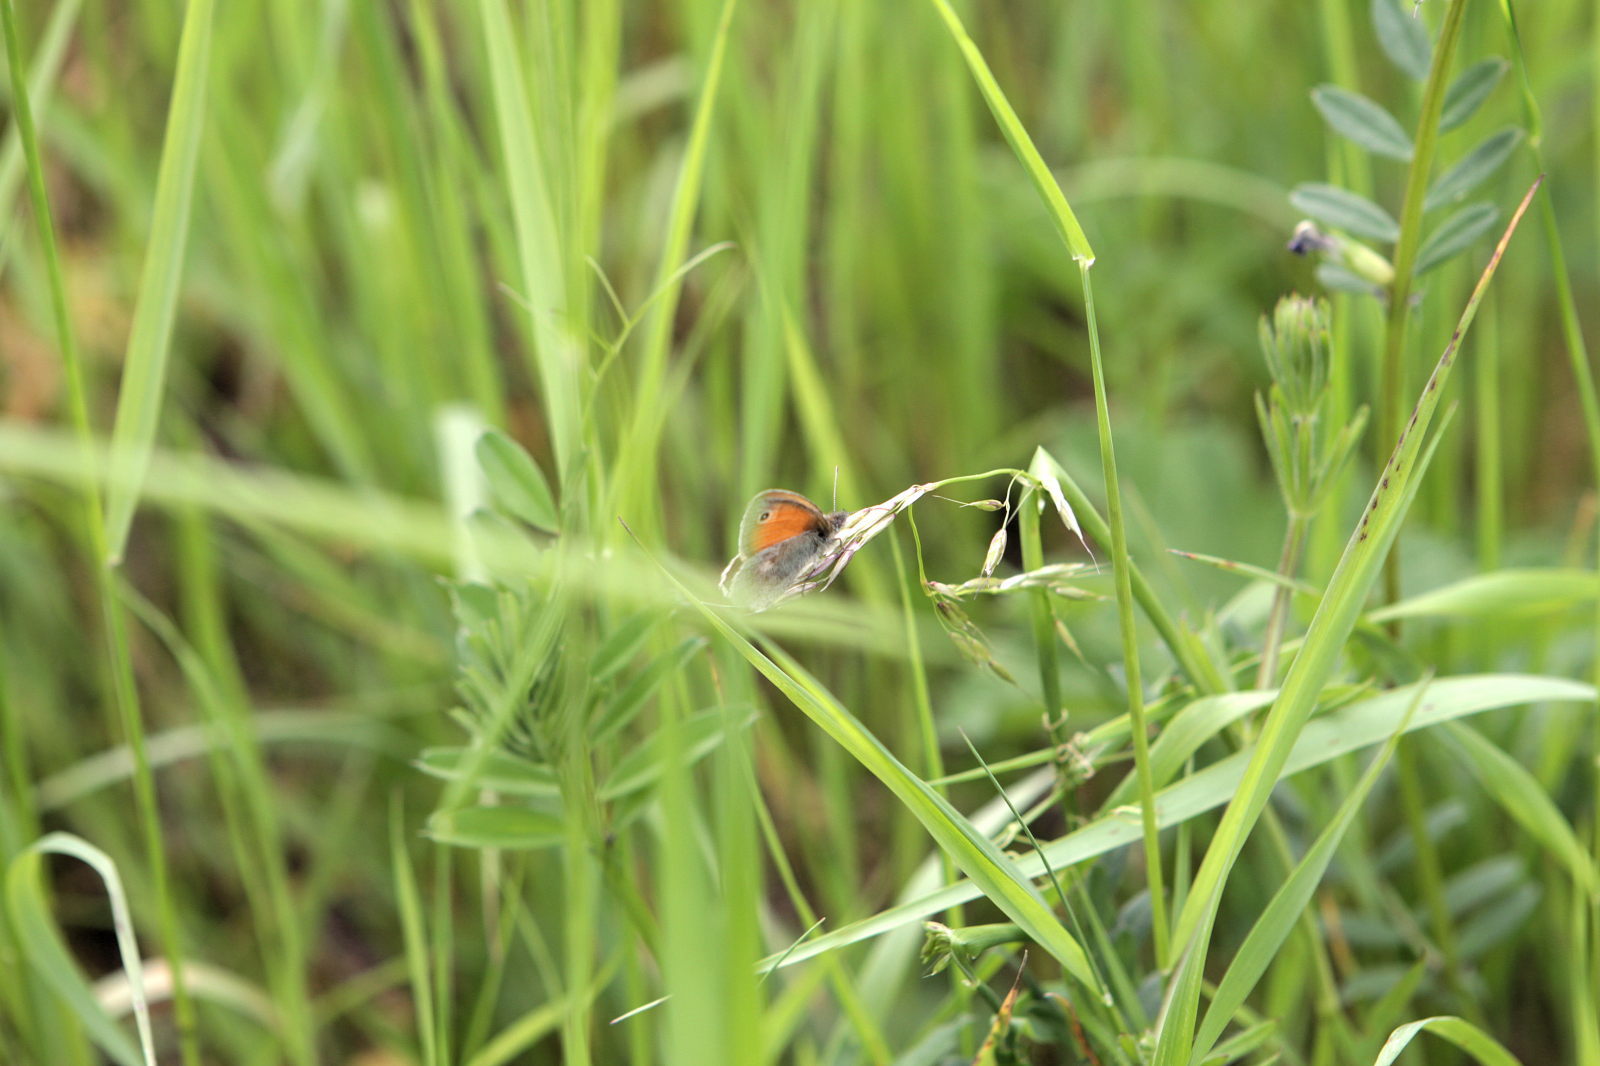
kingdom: Animalia
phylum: Arthropoda
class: Insecta
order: Lepidoptera
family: Nymphalidae
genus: Coenonympha
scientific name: Coenonympha pamphilus
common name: Small heath
